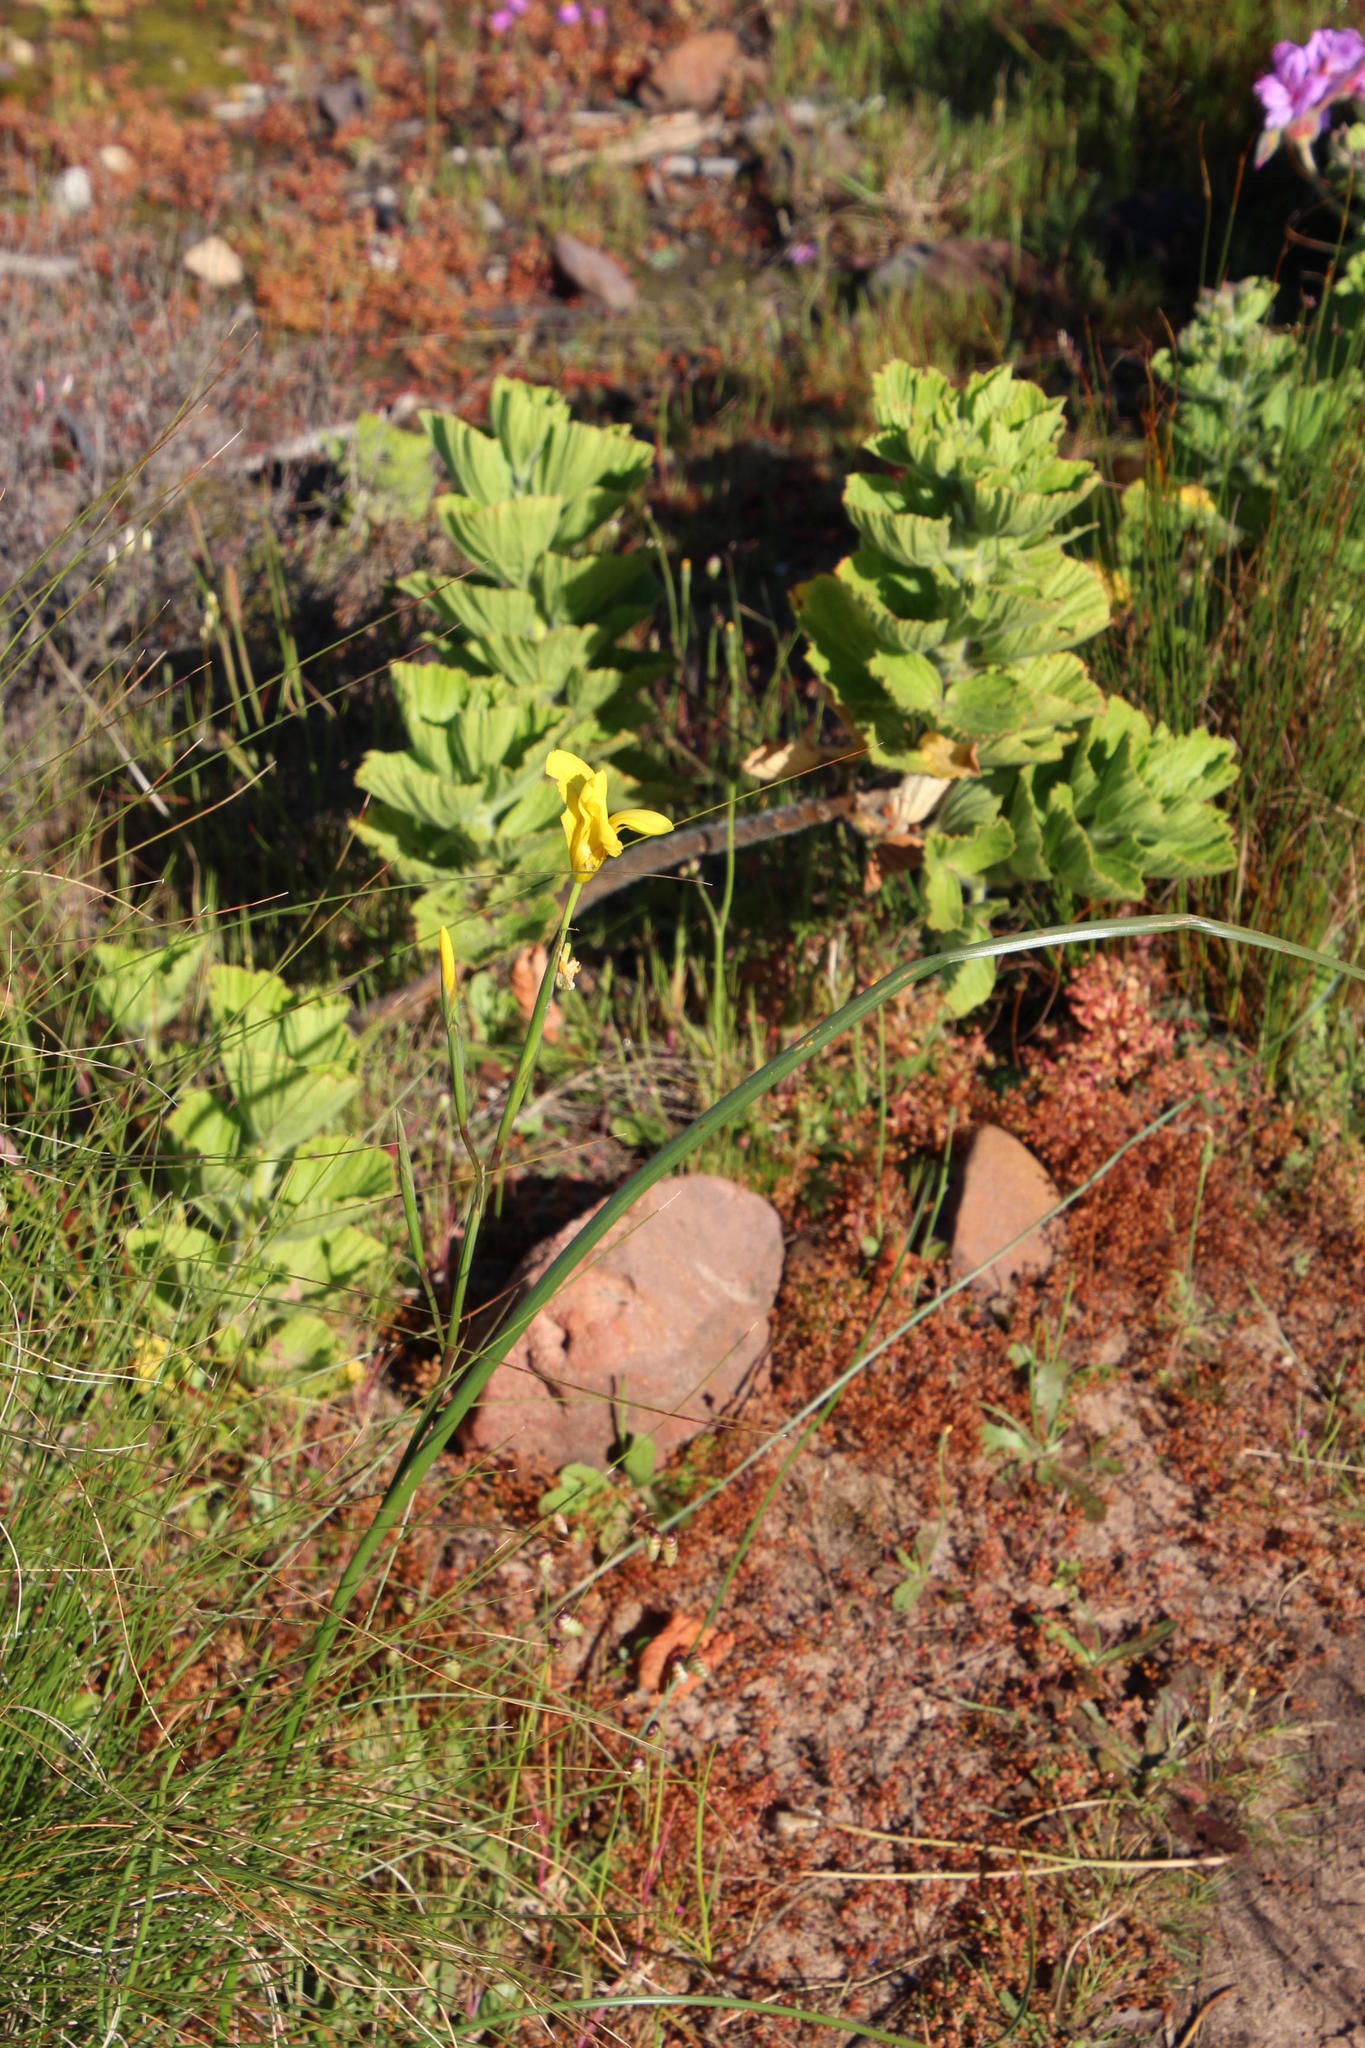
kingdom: Plantae
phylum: Tracheophyta
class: Liliopsida
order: Asparagales
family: Iridaceae
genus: Moraea
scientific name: Moraea ochroleuca
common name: Red tulp
